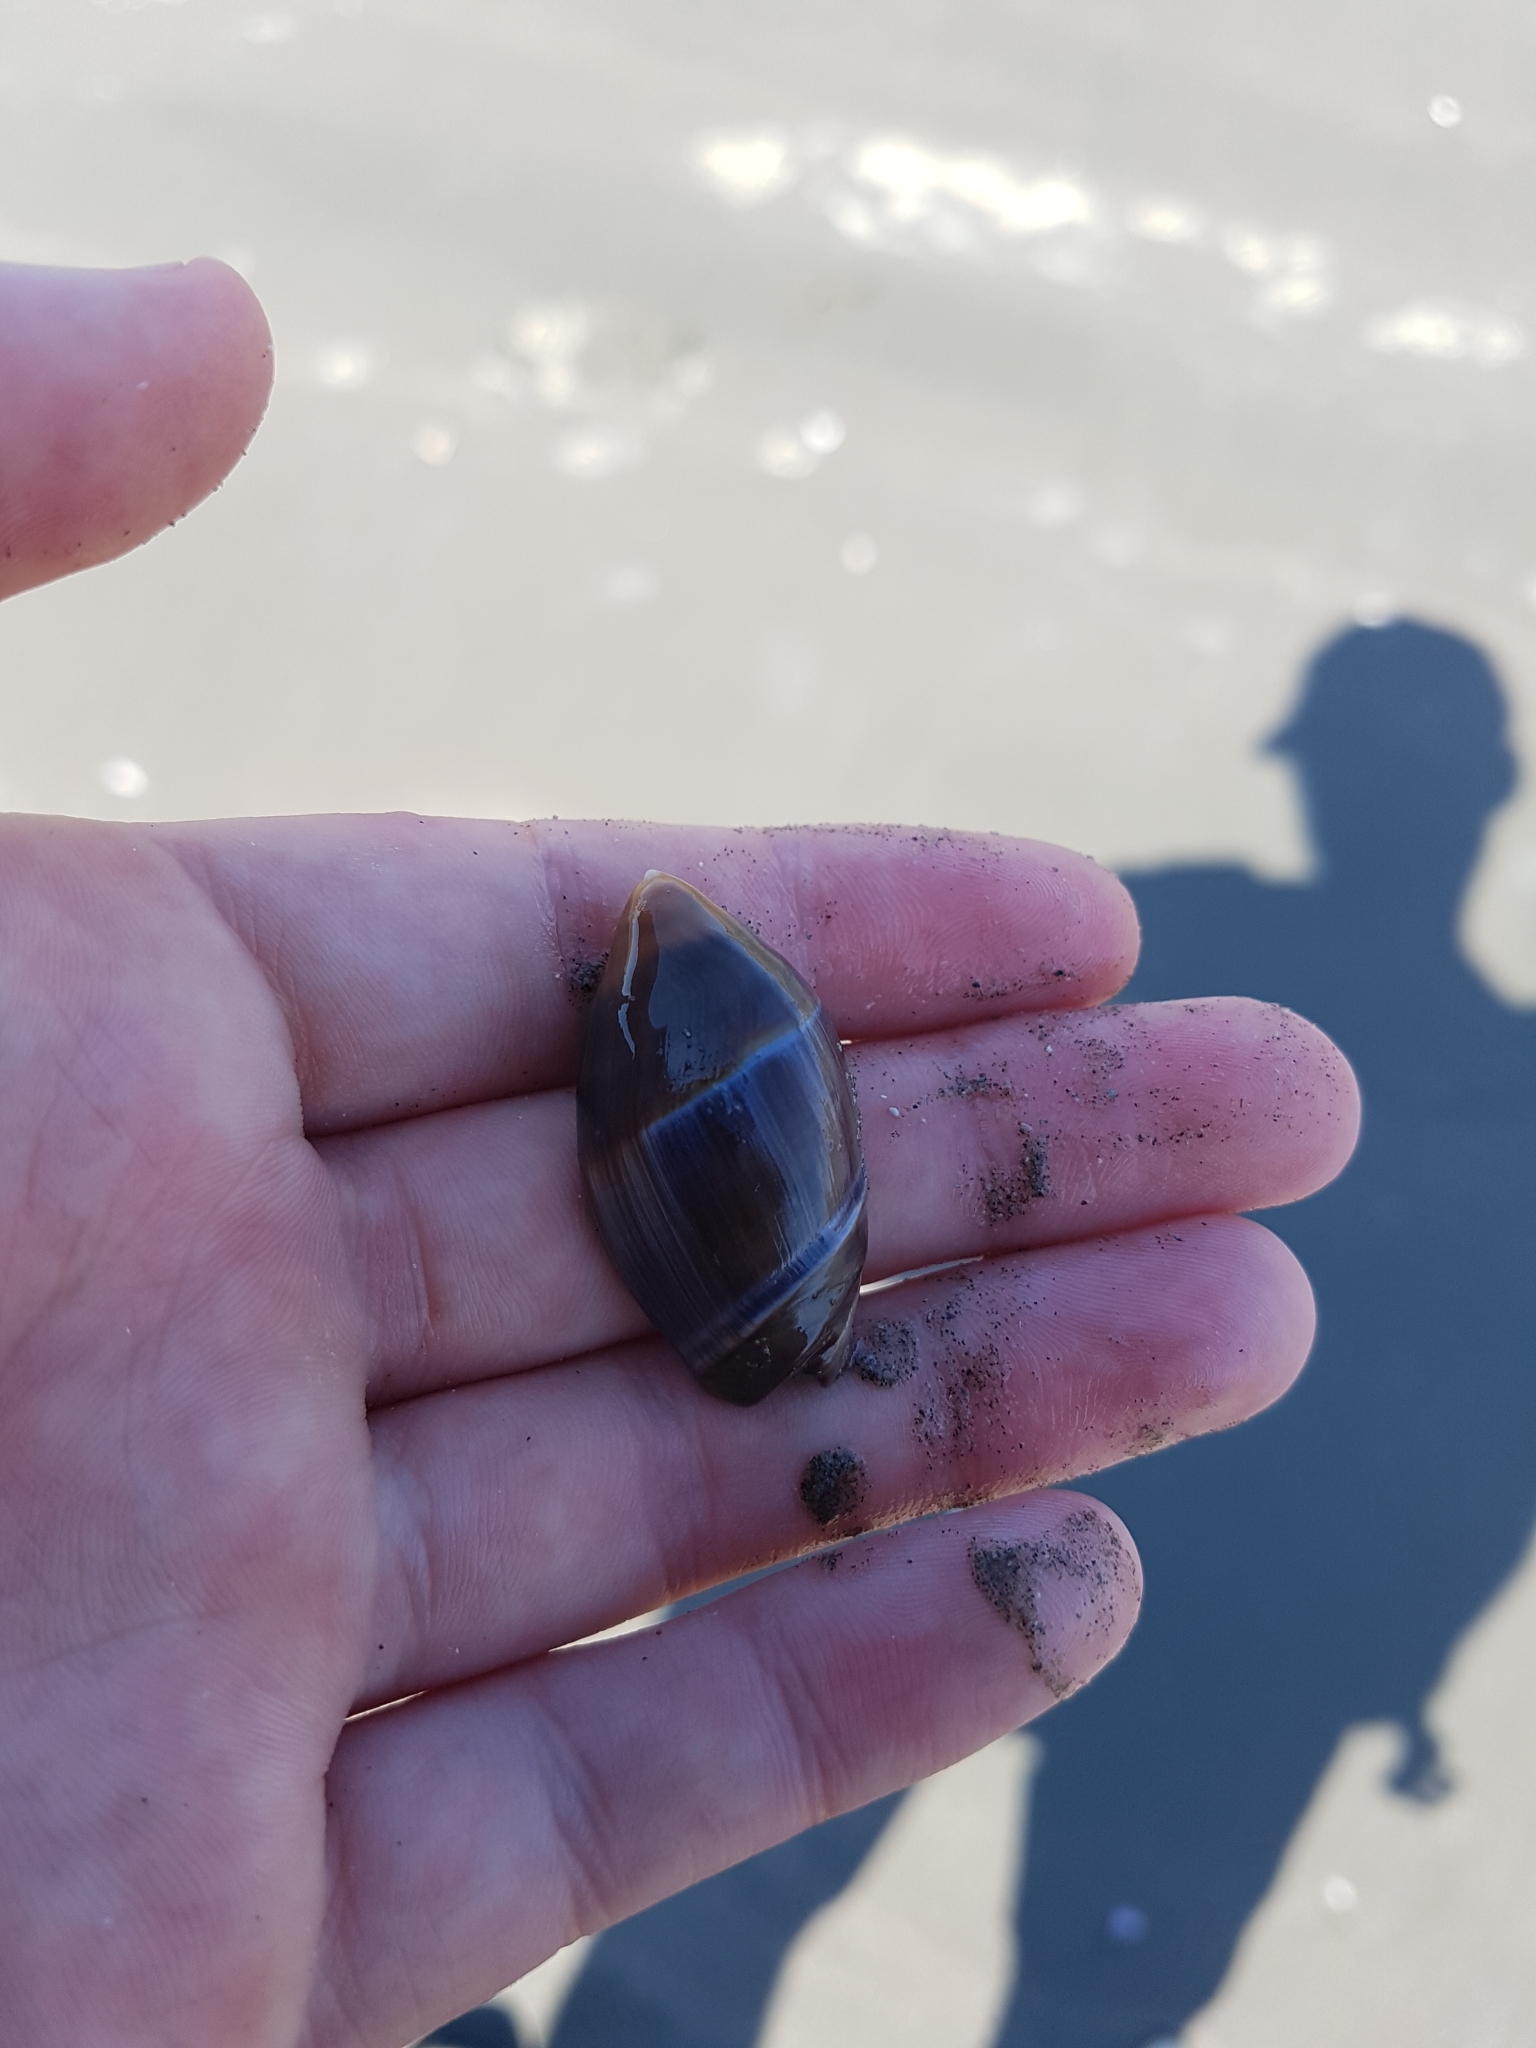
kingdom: Animalia
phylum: Mollusca
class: Gastropoda
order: Neogastropoda
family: Ancillariidae
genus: Amalda
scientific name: Amalda australis
